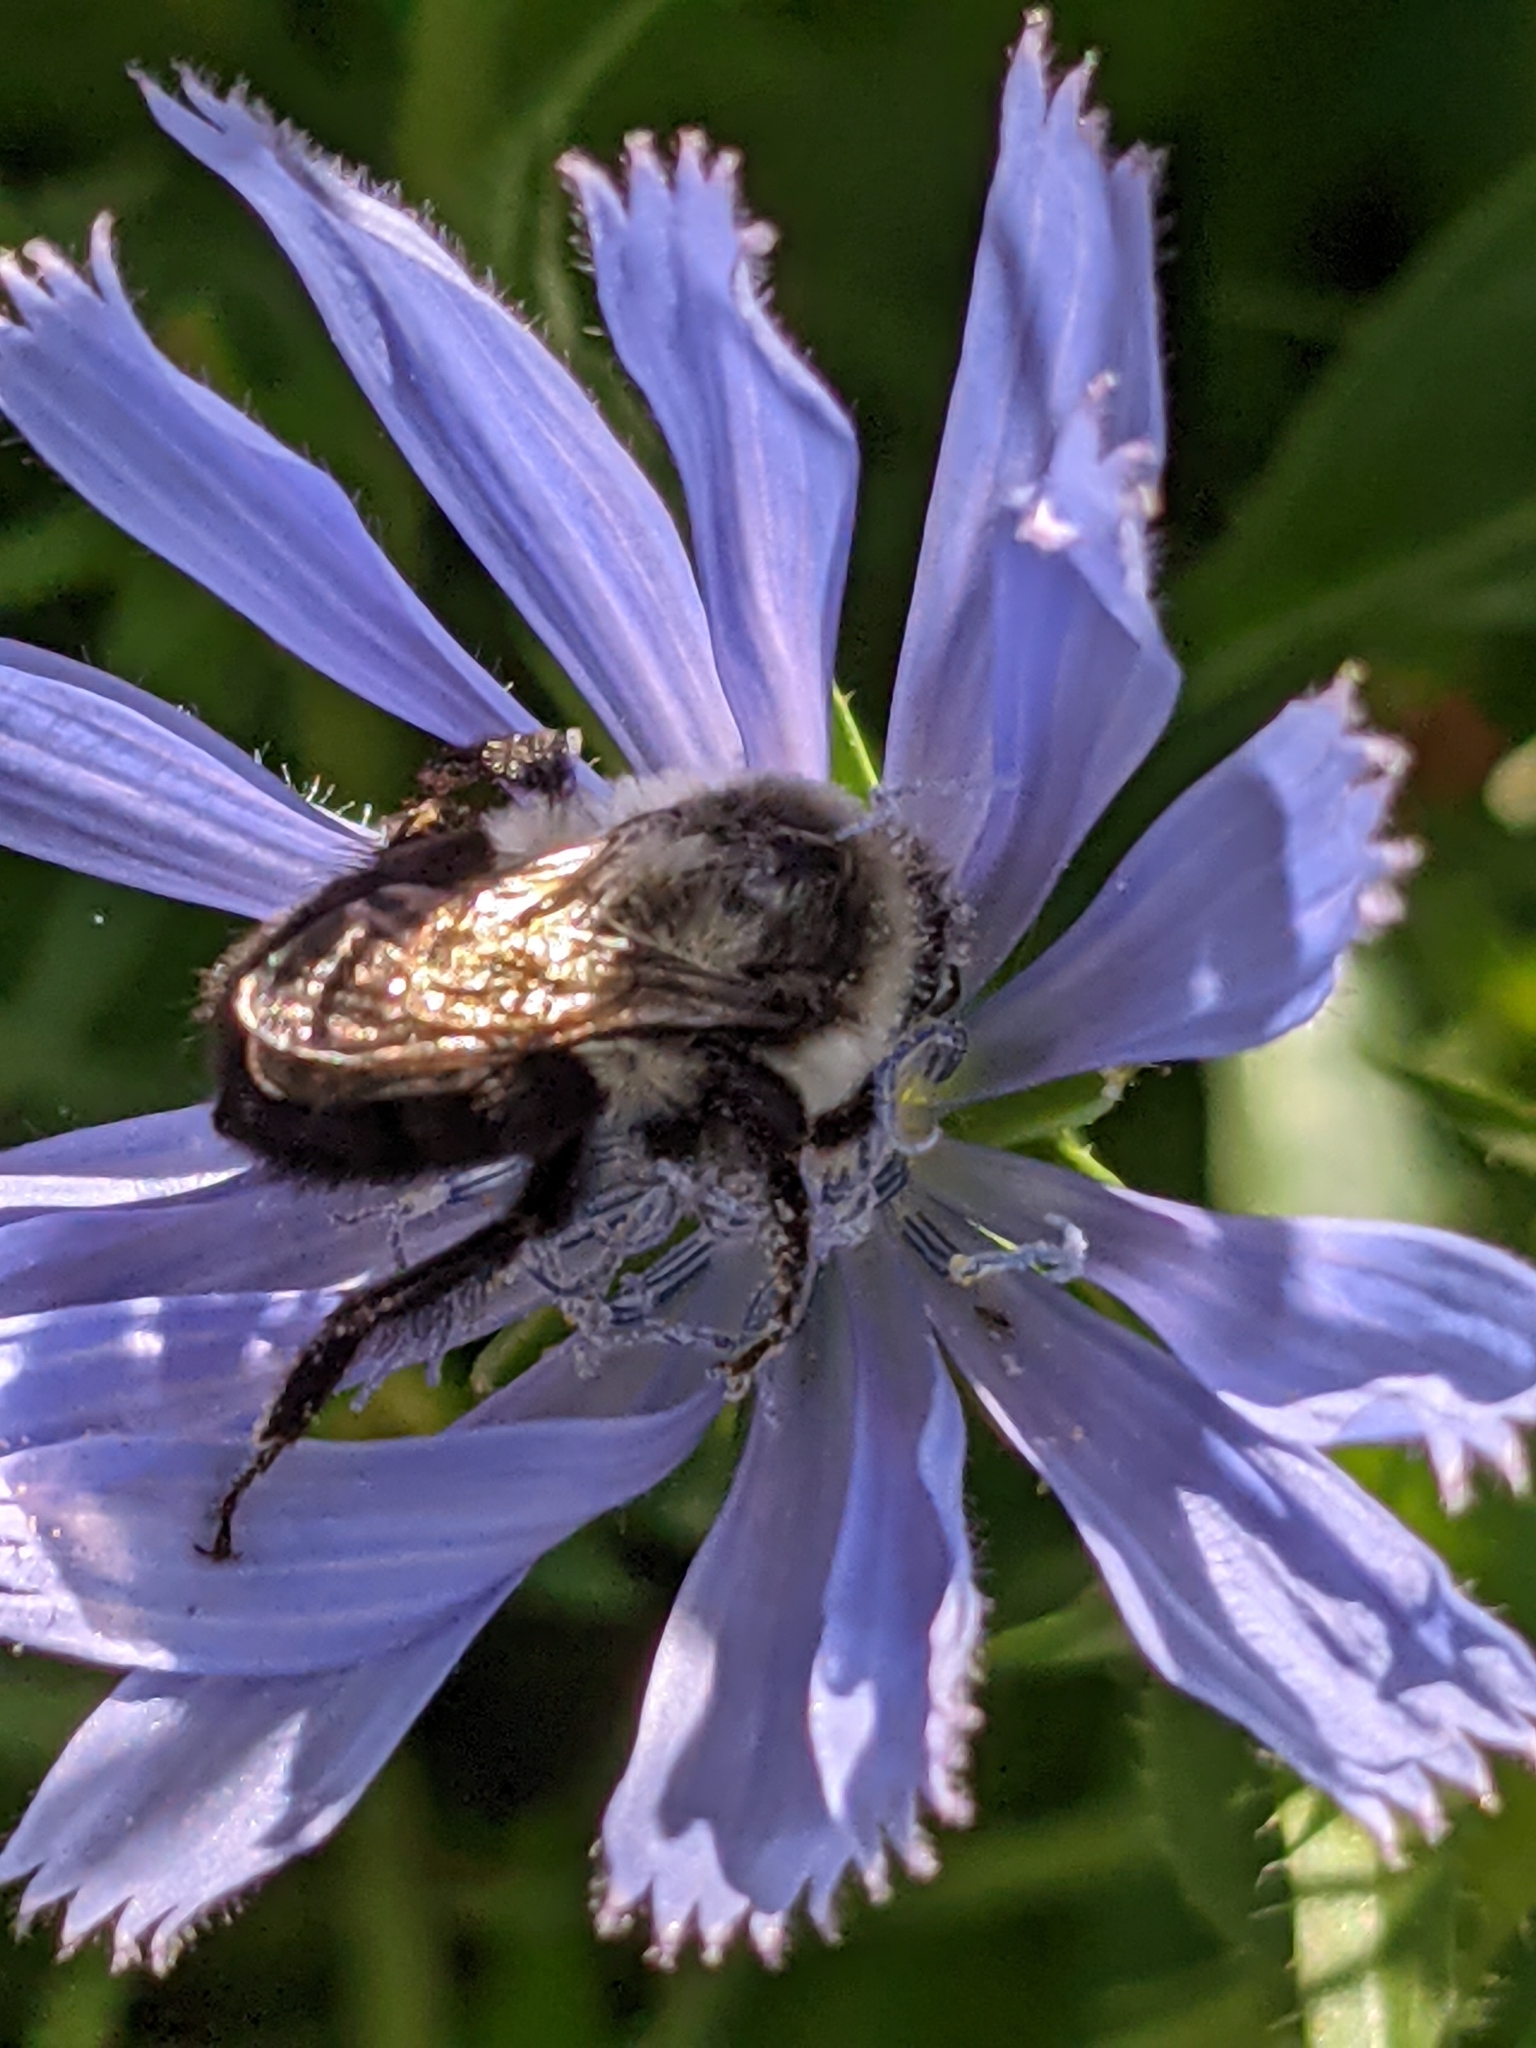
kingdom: Animalia
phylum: Arthropoda
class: Insecta
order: Hymenoptera
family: Apidae
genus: Bombus
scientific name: Bombus impatiens
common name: Common eastern bumble bee
